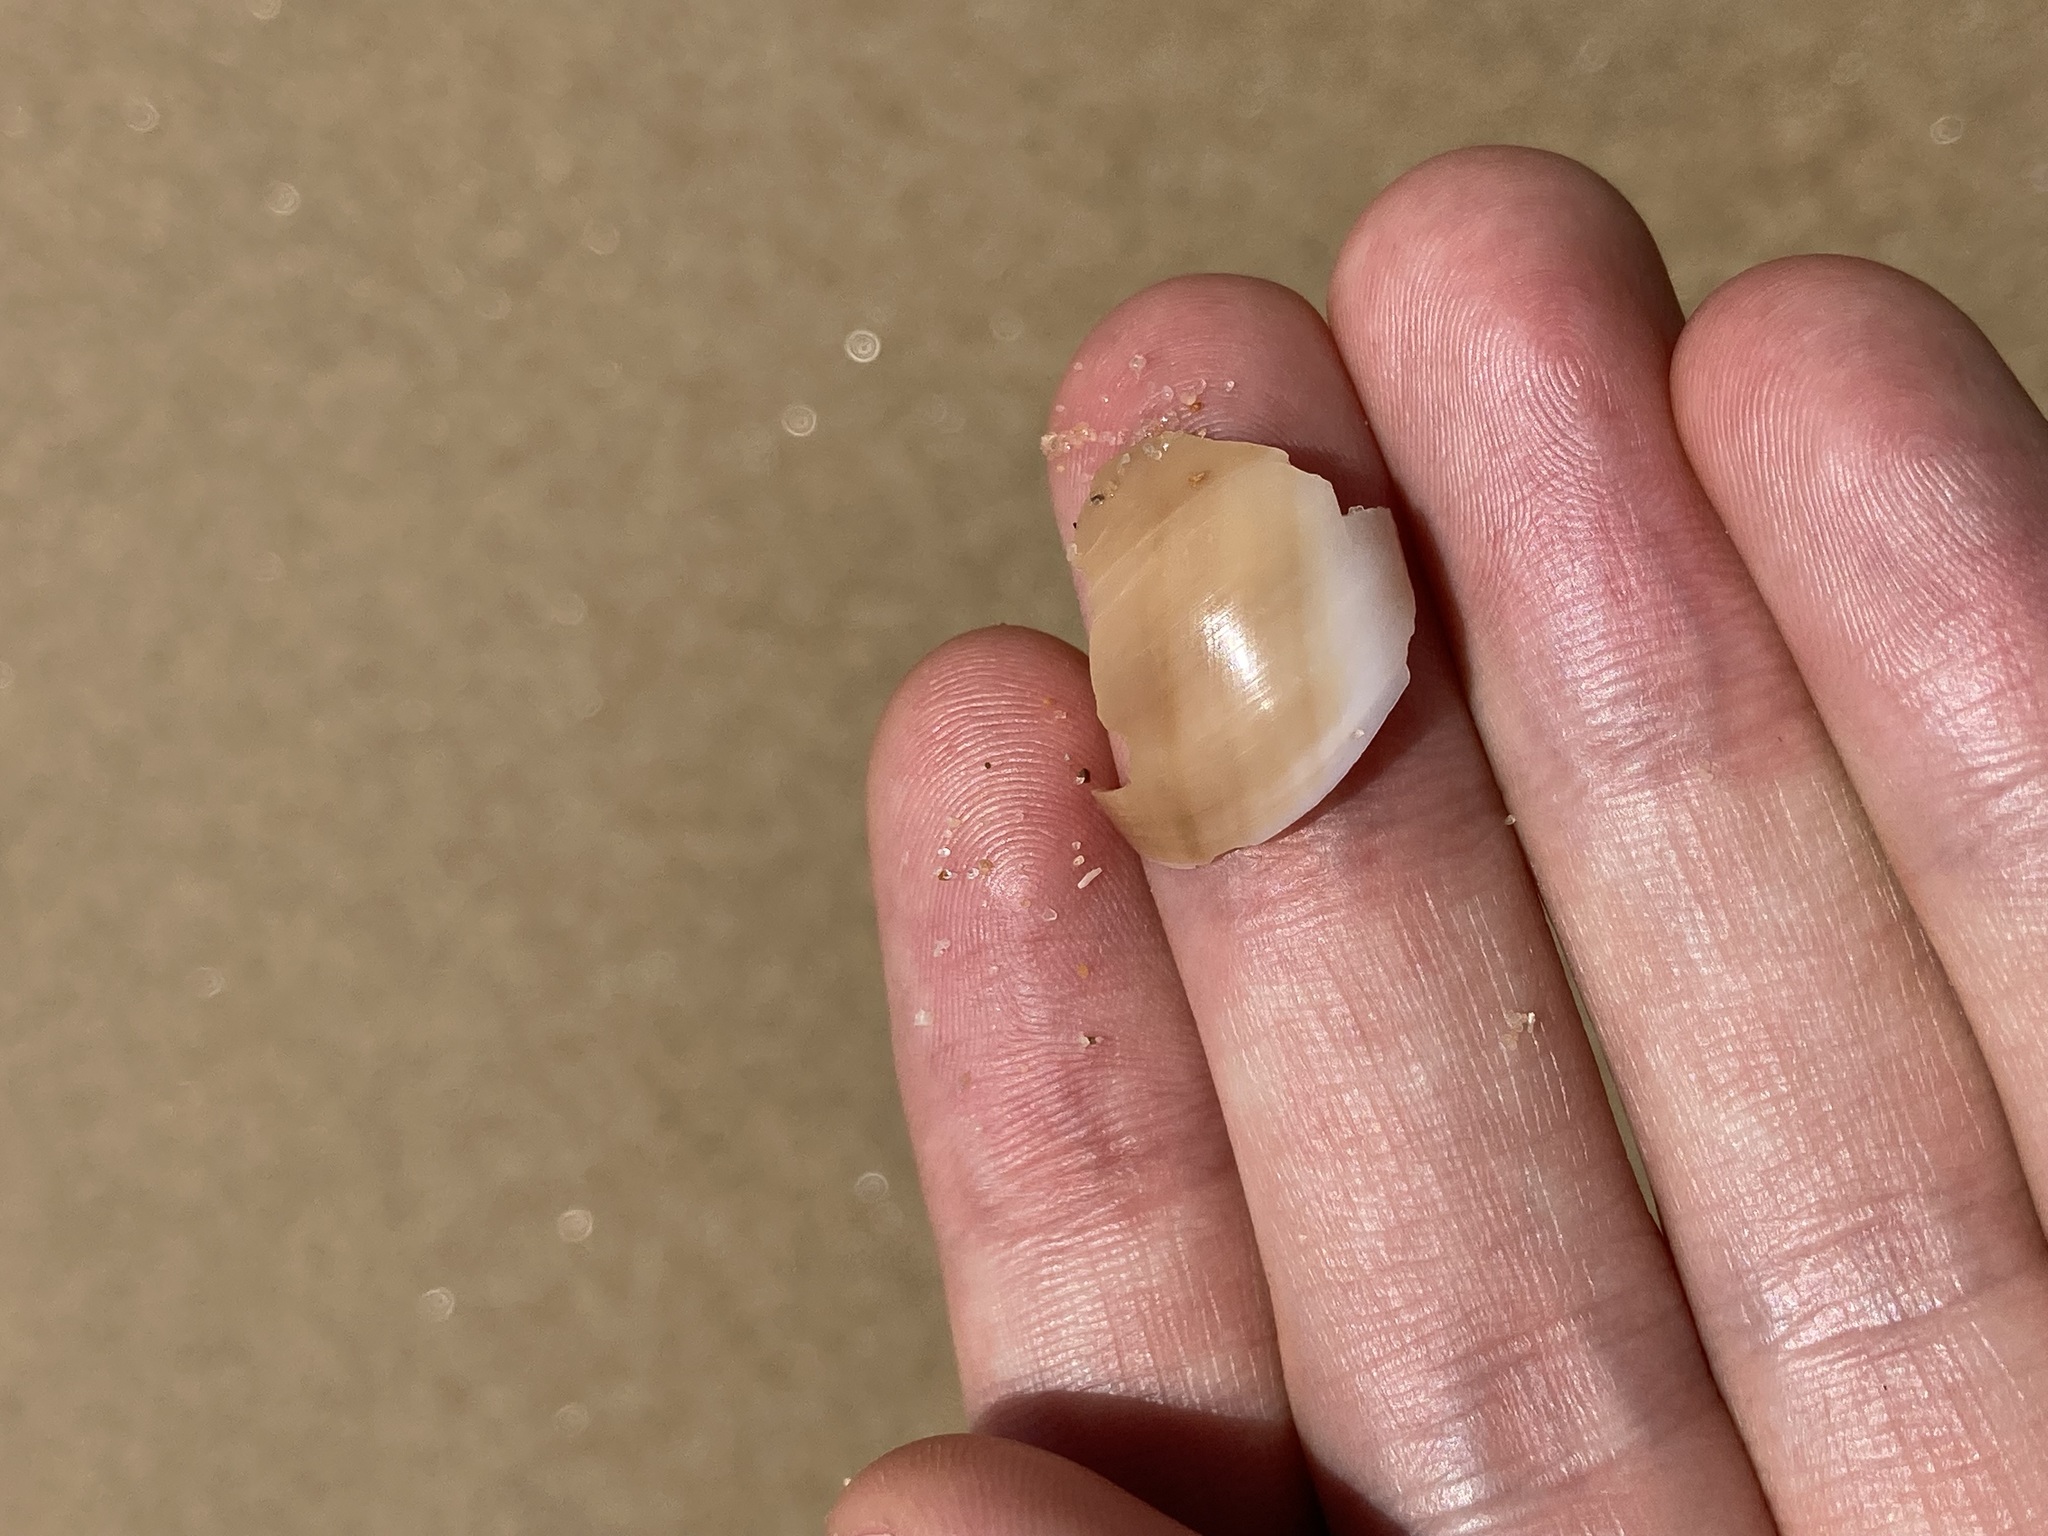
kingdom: Animalia
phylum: Mollusca
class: Gastropoda
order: Littorinimorpha
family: Naticidae
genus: Neverita
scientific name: Neverita didyma
